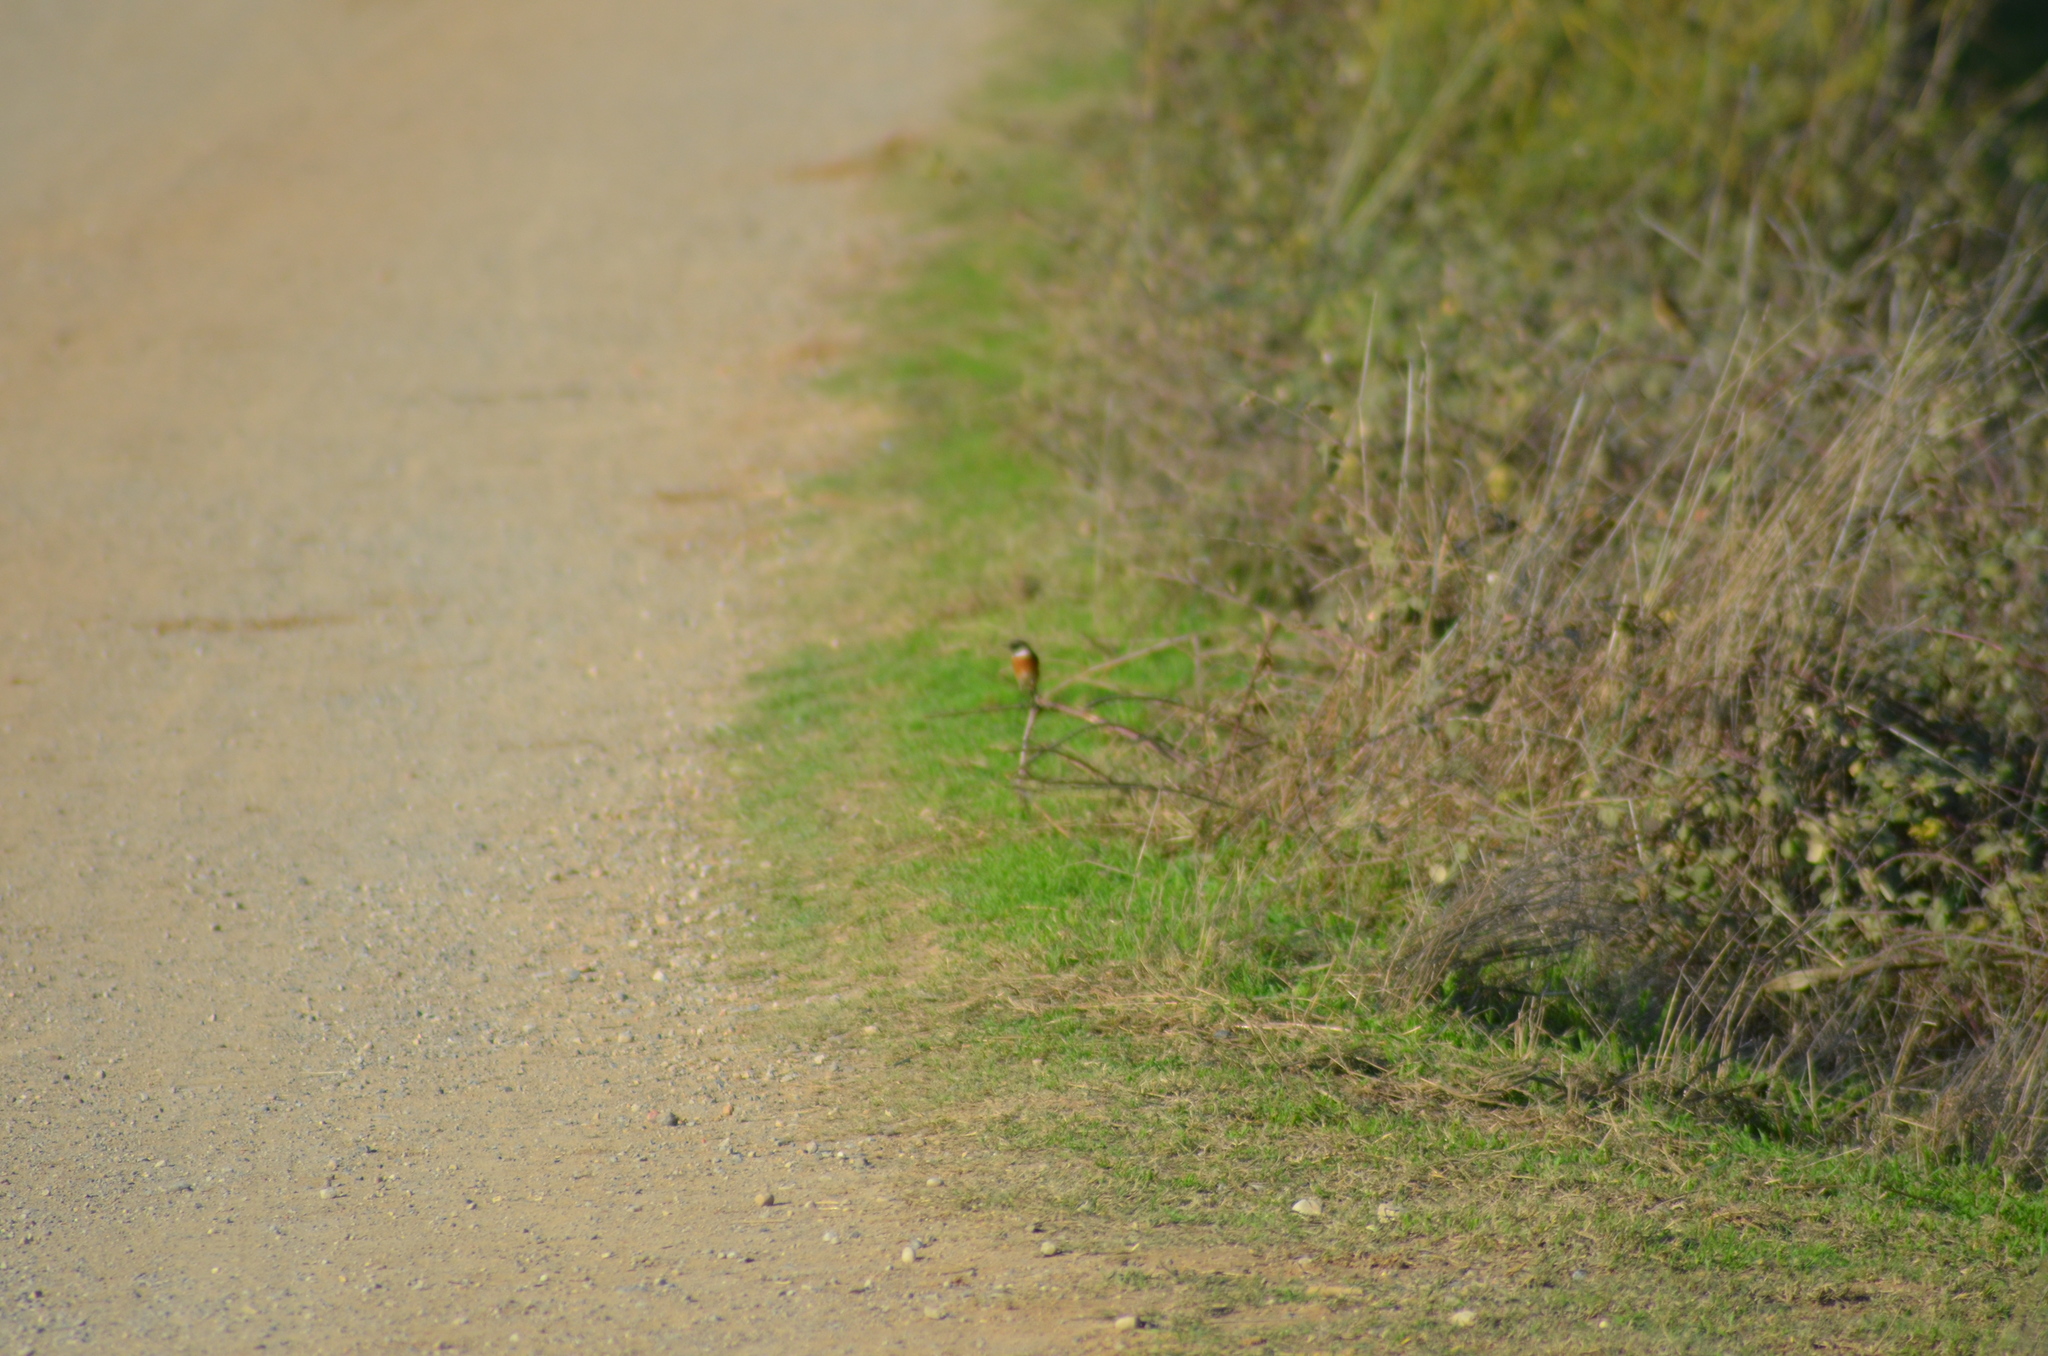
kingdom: Animalia
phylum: Chordata
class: Aves
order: Passeriformes
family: Muscicapidae
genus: Saxicola
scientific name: Saxicola rubicola
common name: European stonechat
